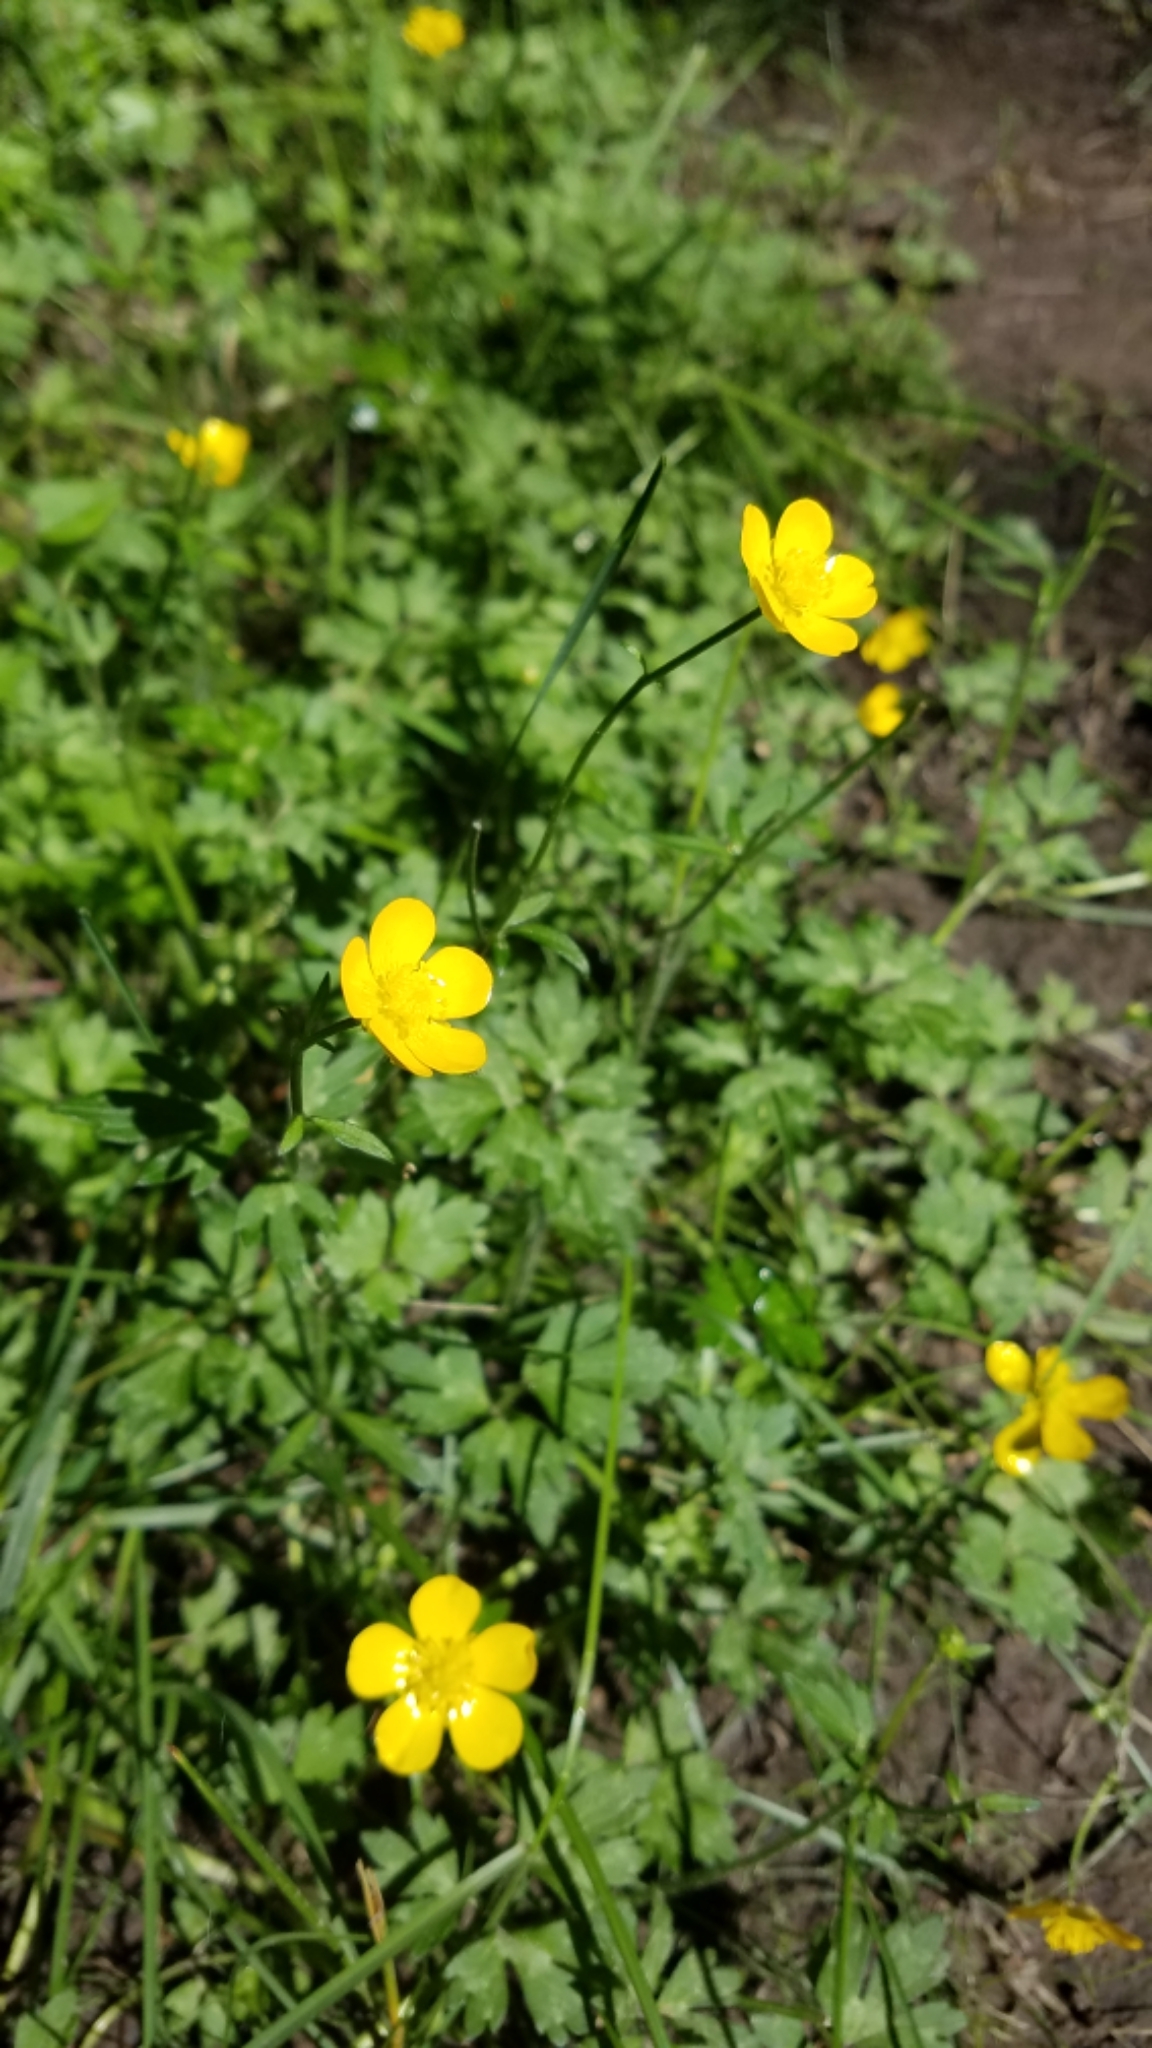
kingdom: Plantae
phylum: Tracheophyta
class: Magnoliopsida
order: Ranunculales
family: Ranunculaceae
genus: Ranunculus
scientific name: Ranunculus repens
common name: Creeping buttercup
